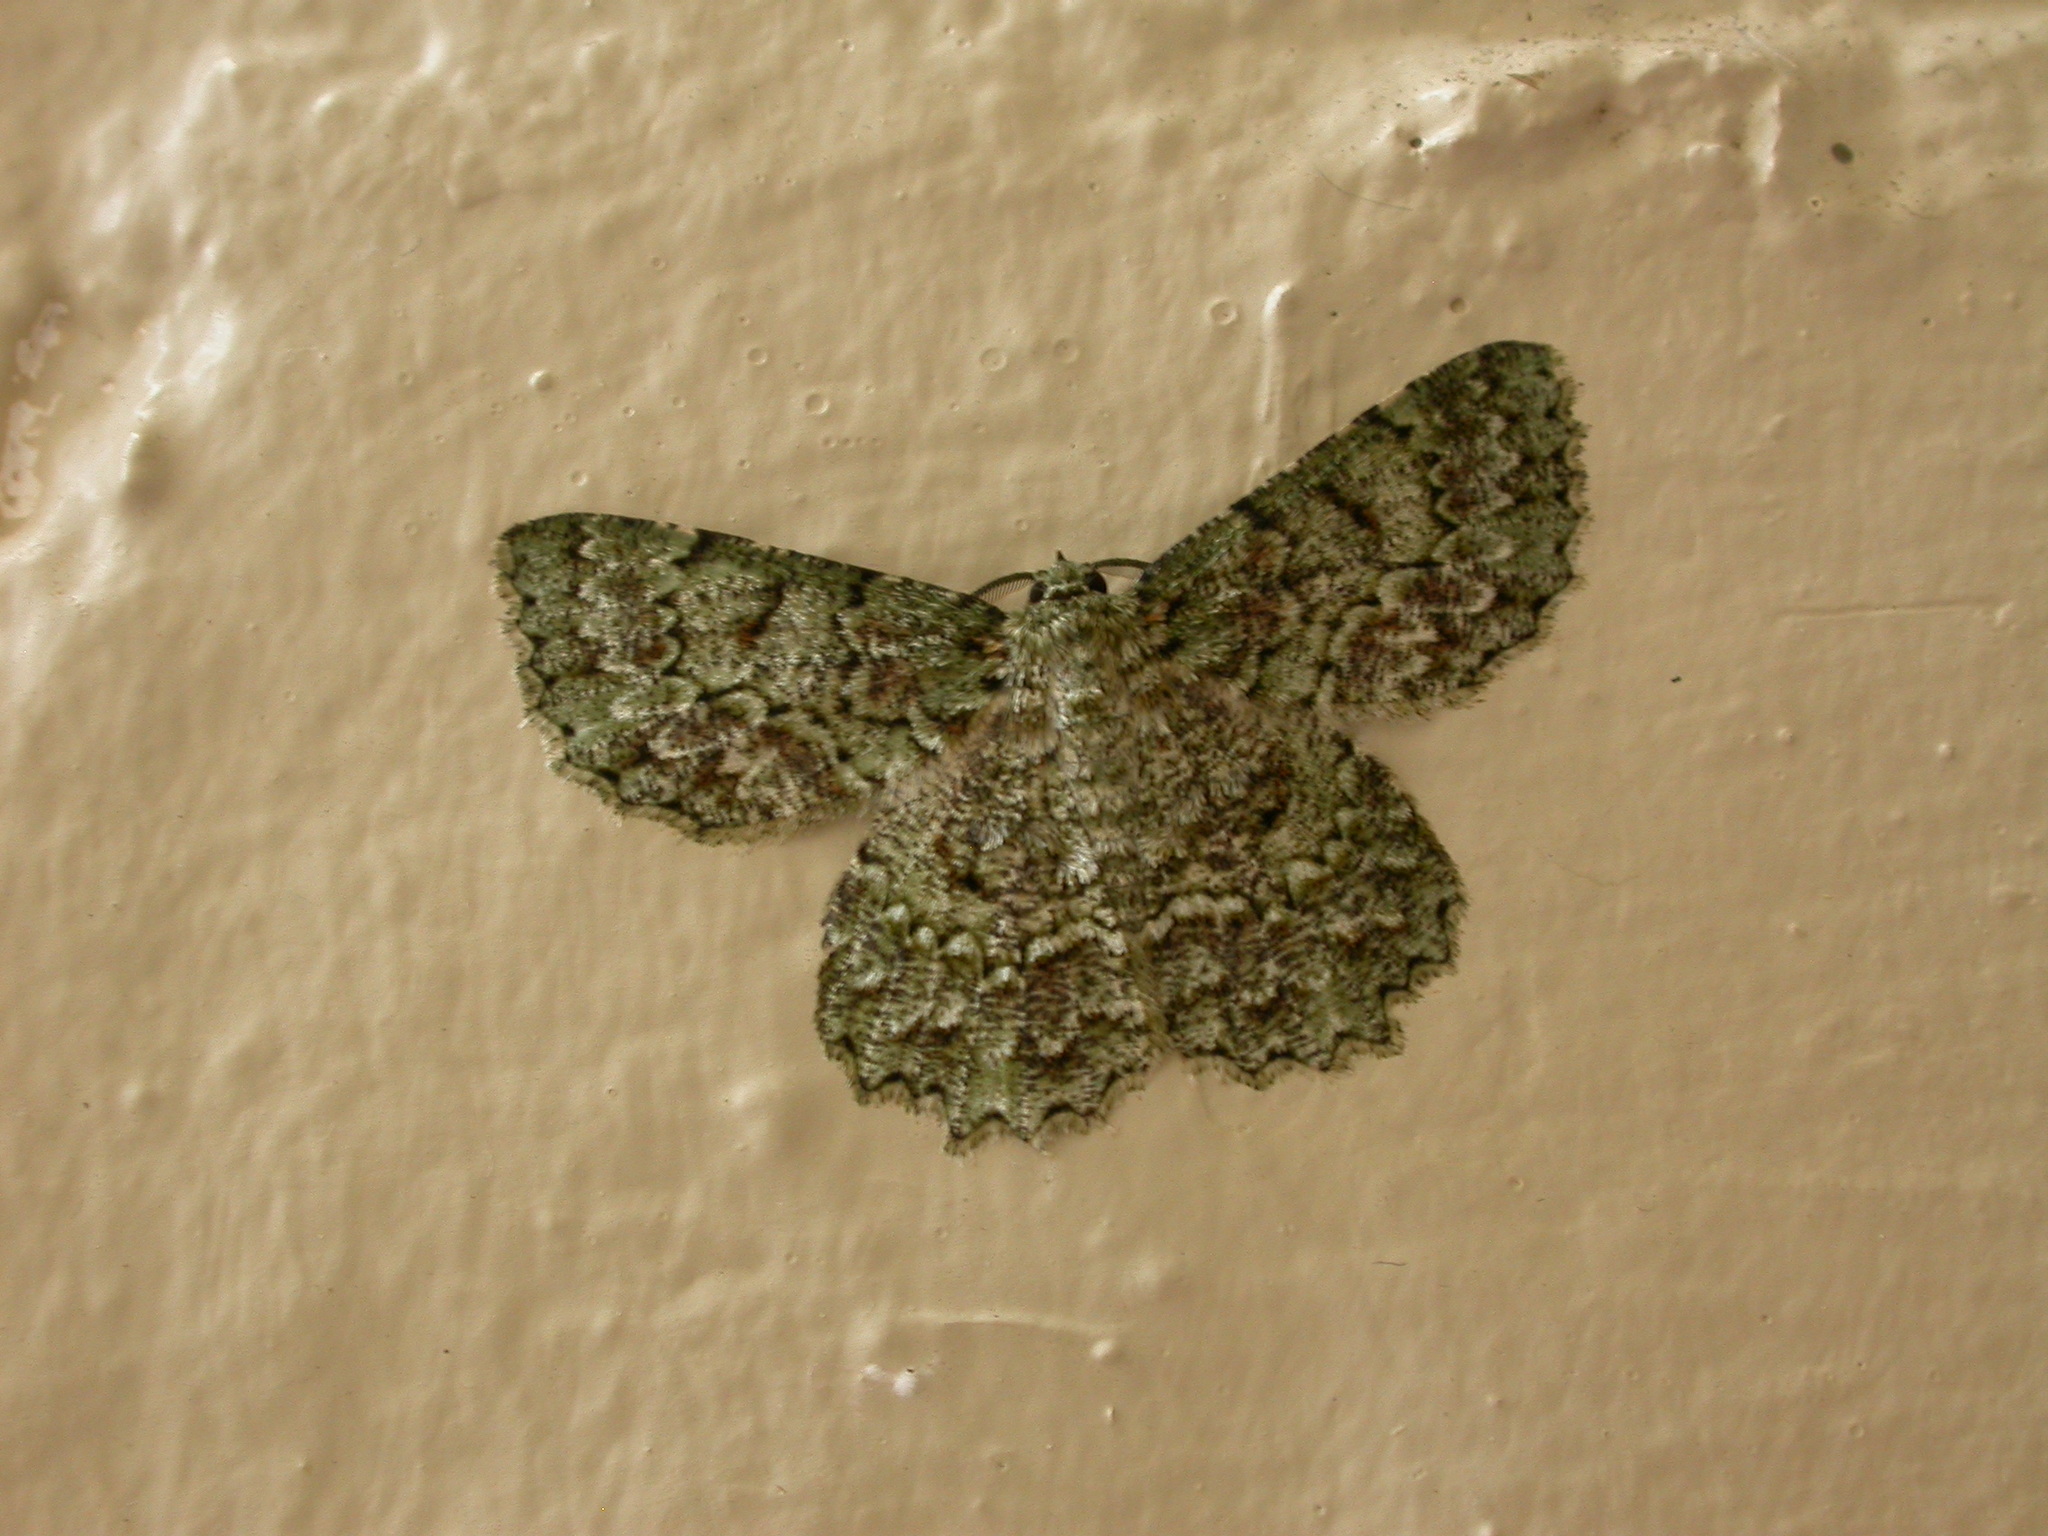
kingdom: Animalia
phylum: Arthropoda
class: Insecta
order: Lepidoptera
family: Geometridae
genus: Hypodoxa
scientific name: Hypodoxa muscosaria
